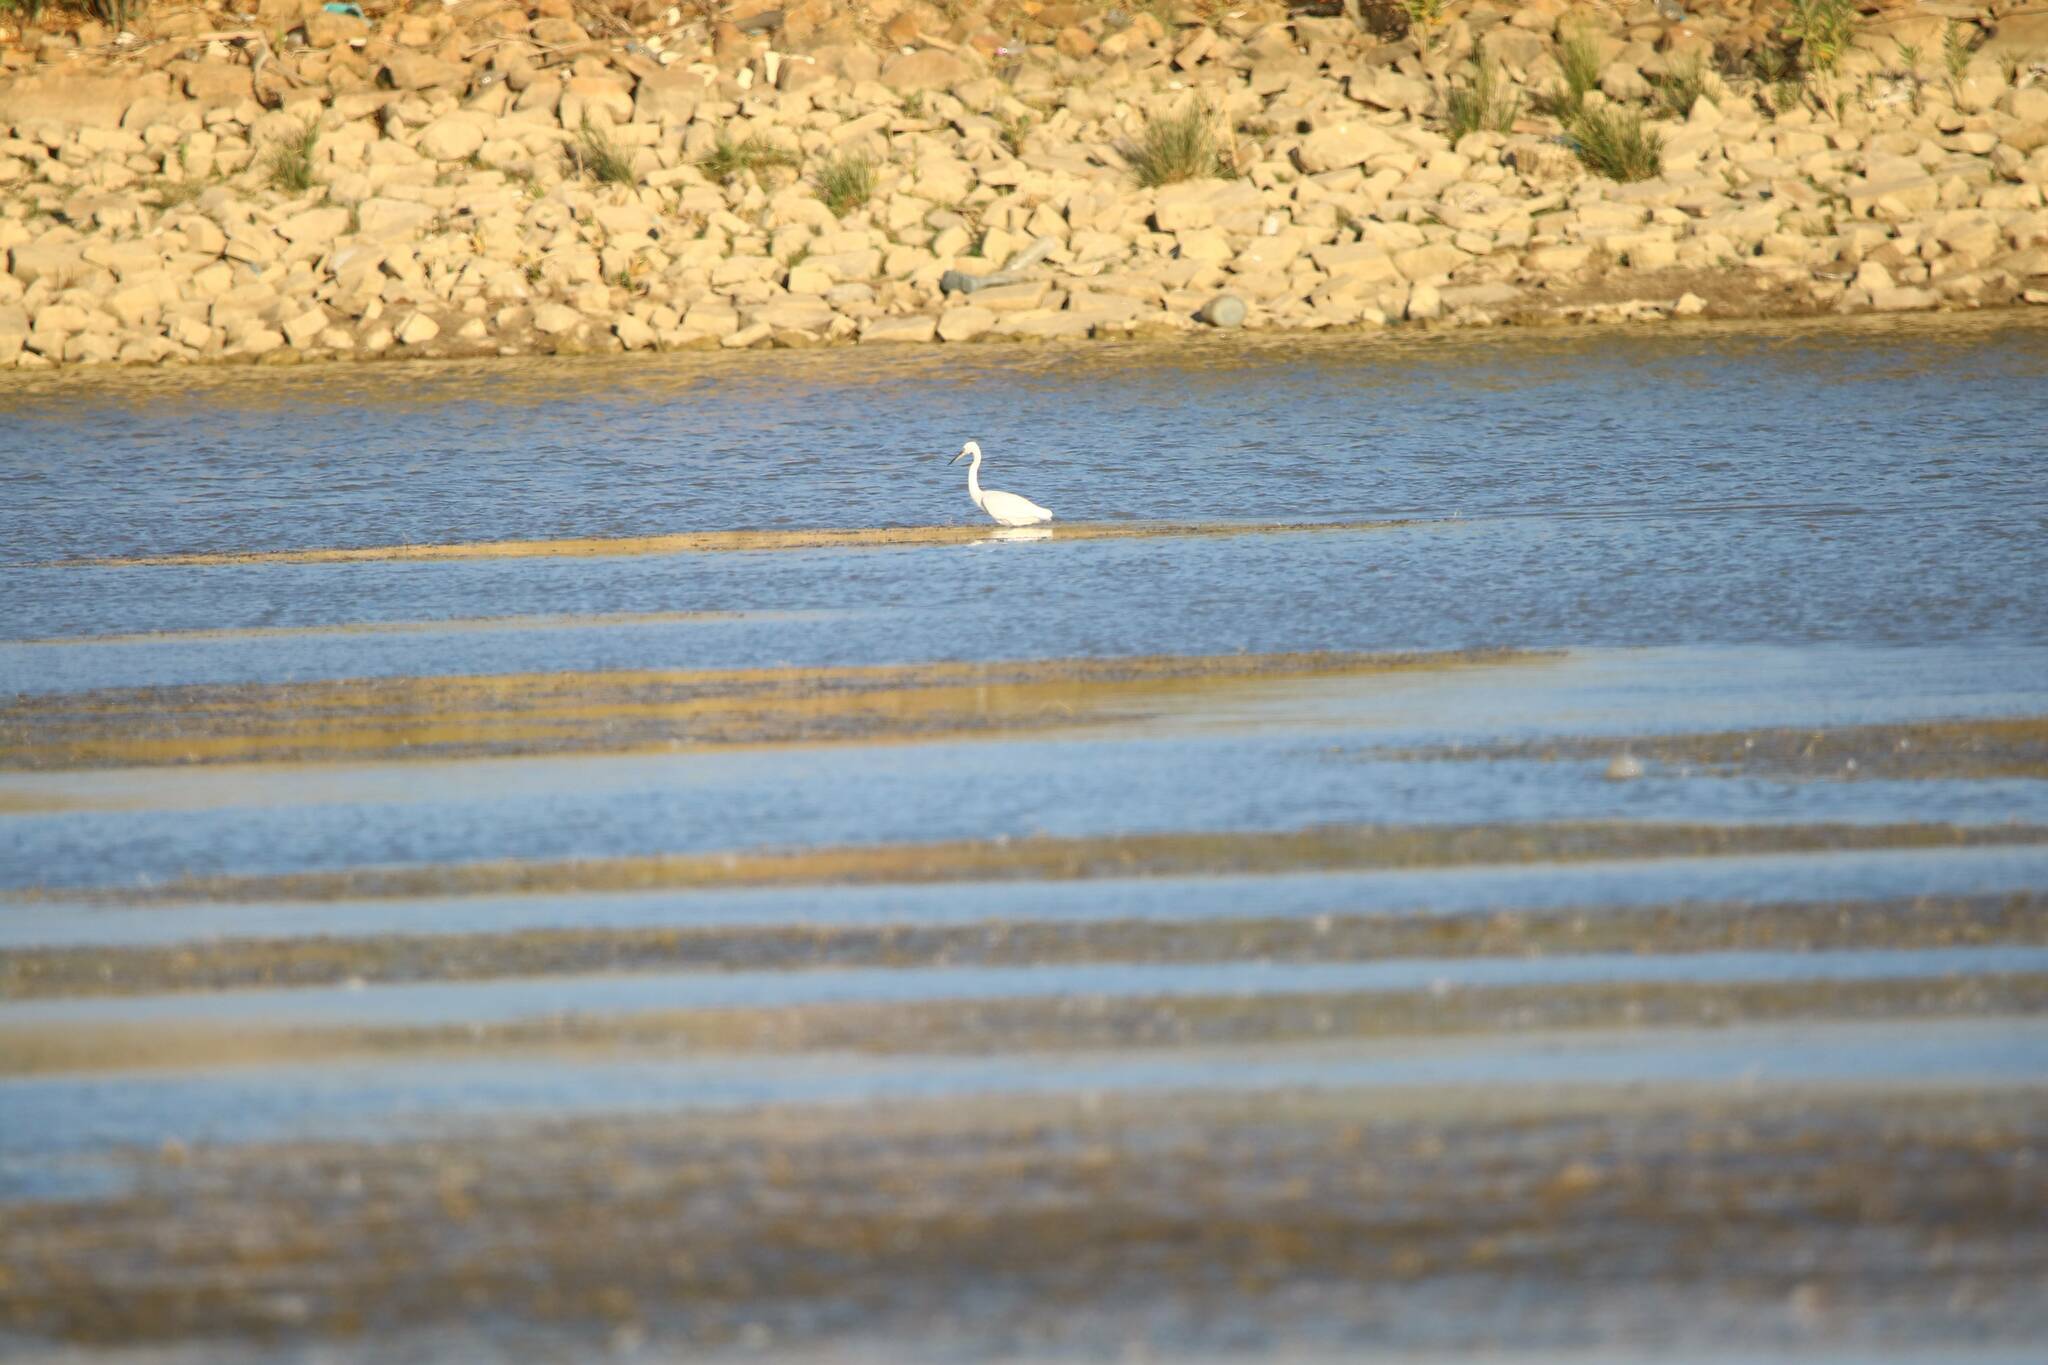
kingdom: Animalia
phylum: Chordata
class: Aves
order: Pelecaniformes
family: Ardeidae
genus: Egretta
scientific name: Egretta garzetta
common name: Little egret
